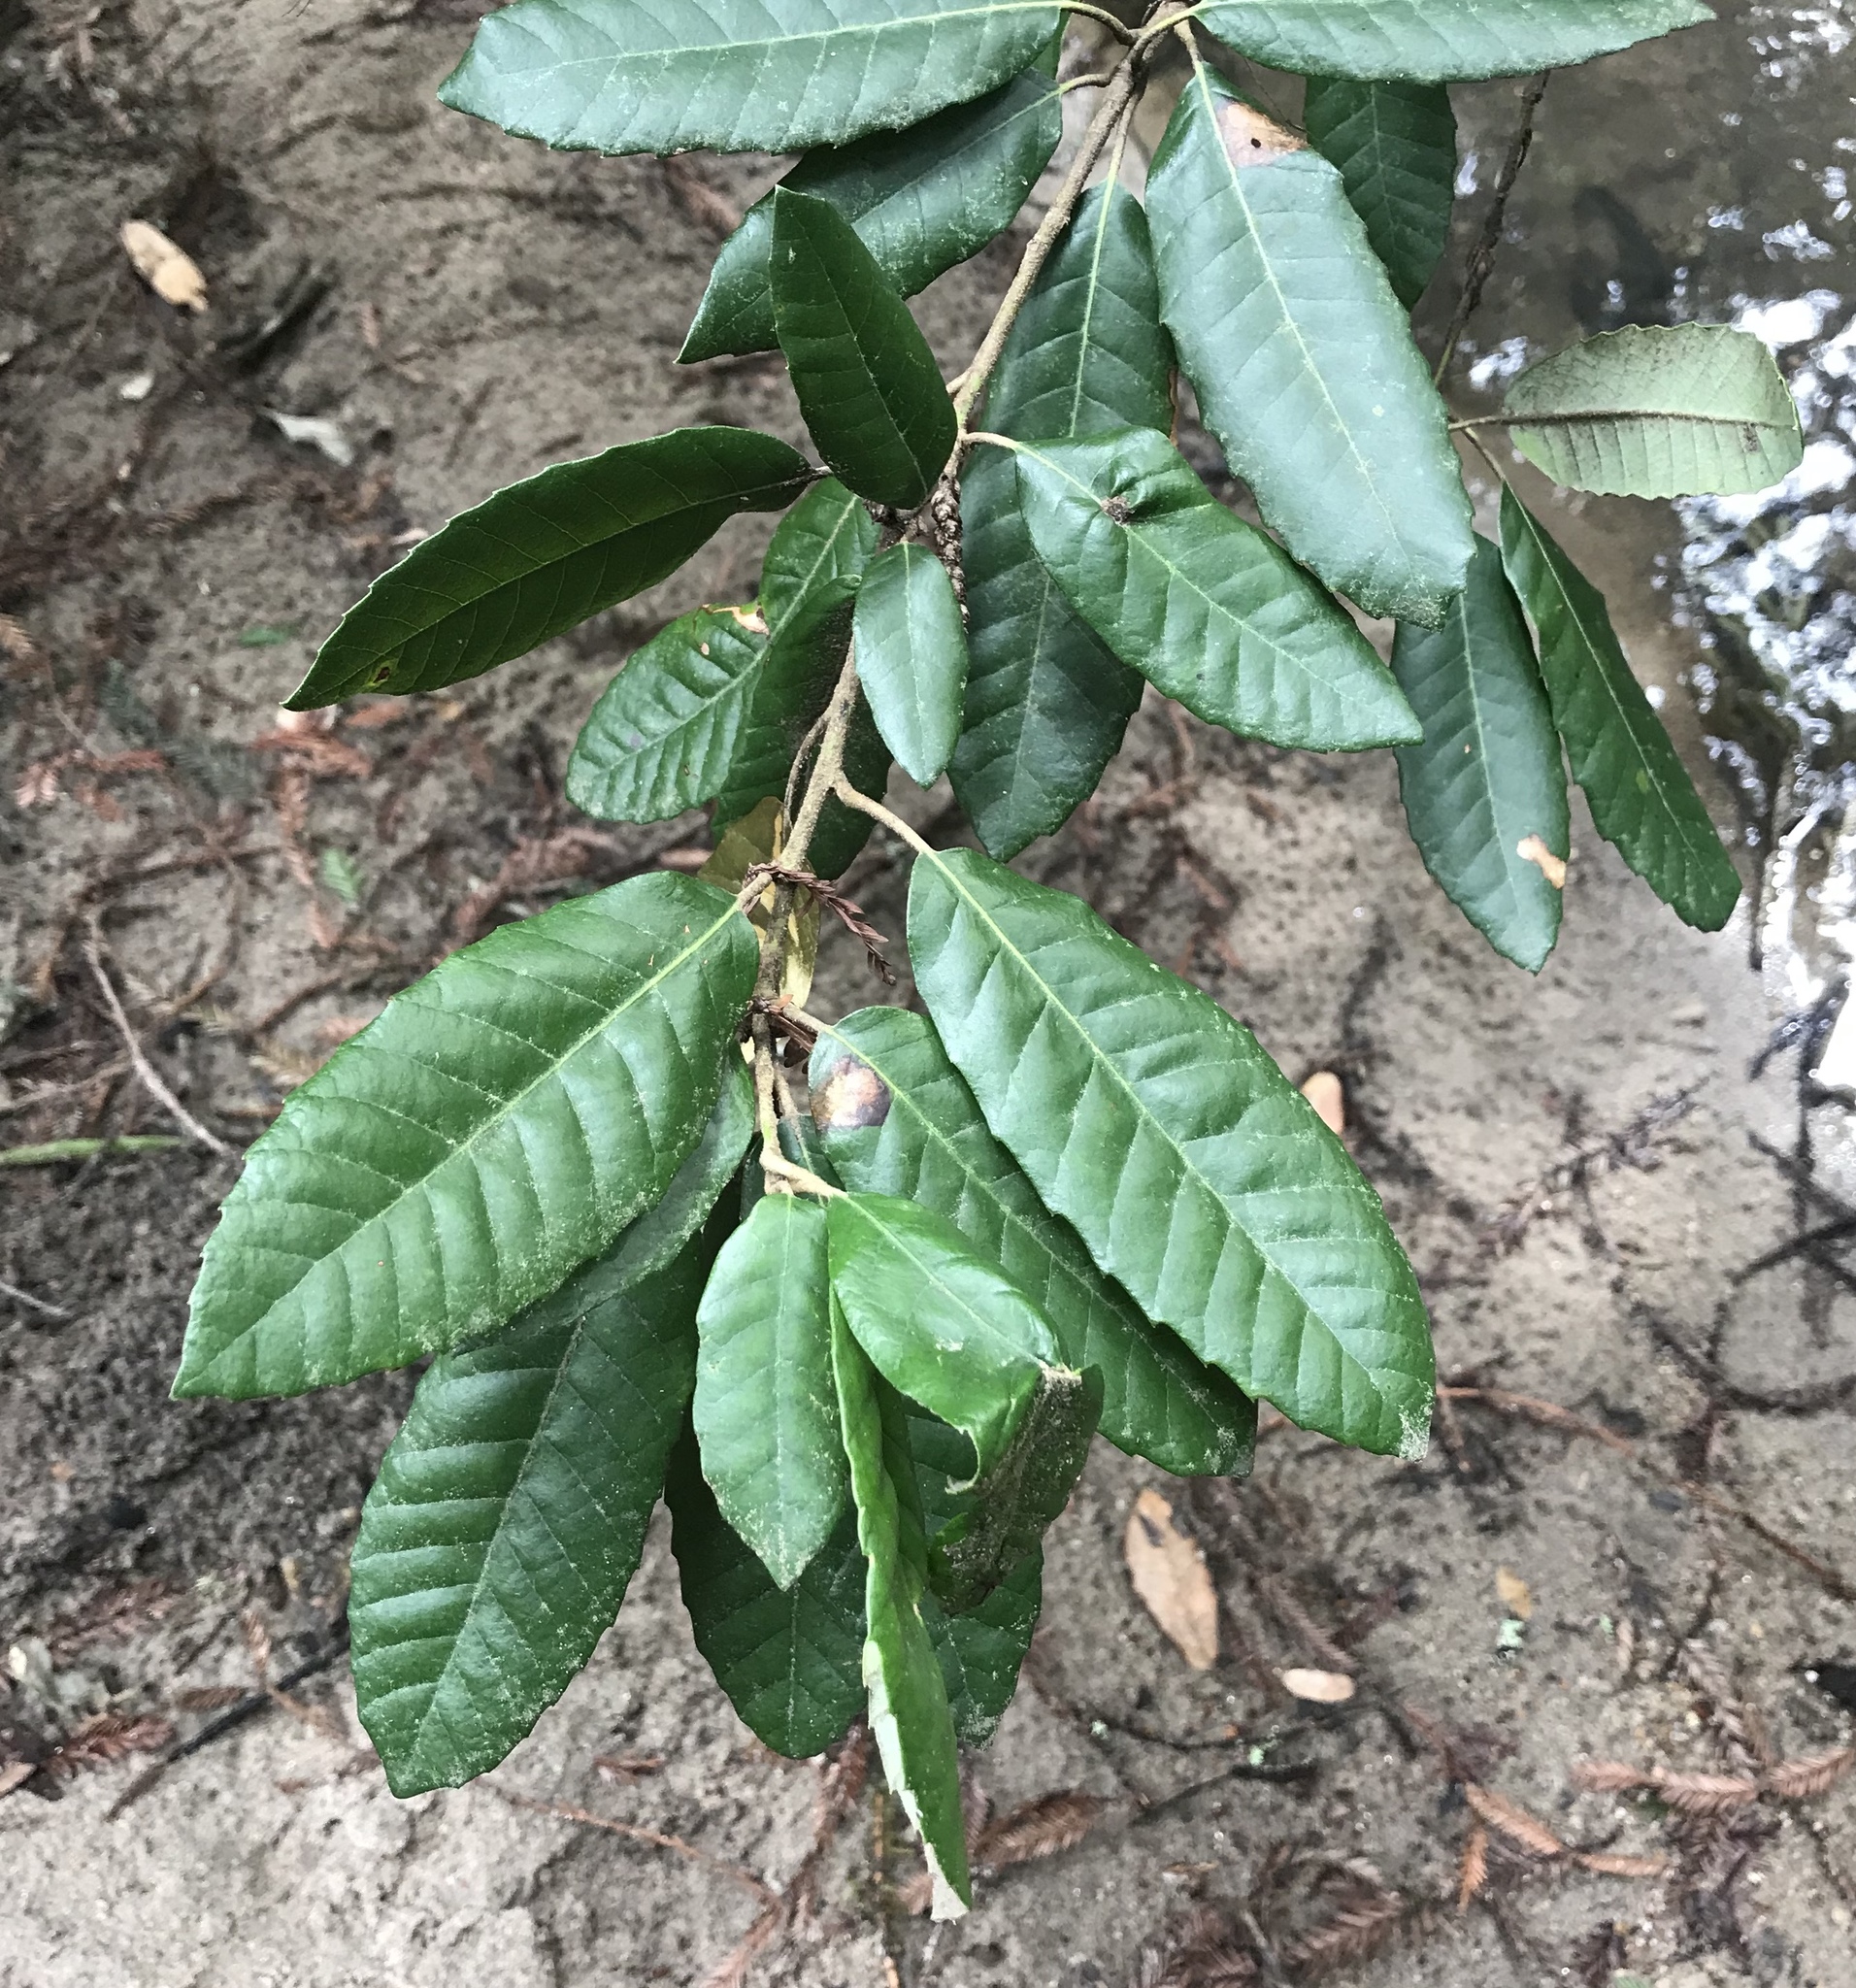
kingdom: Plantae
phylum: Tracheophyta
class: Magnoliopsida
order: Fagales
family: Fagaceae
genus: Notholithocarpus
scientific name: Notholithocarpus densiflorus
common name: Tan bark oak
